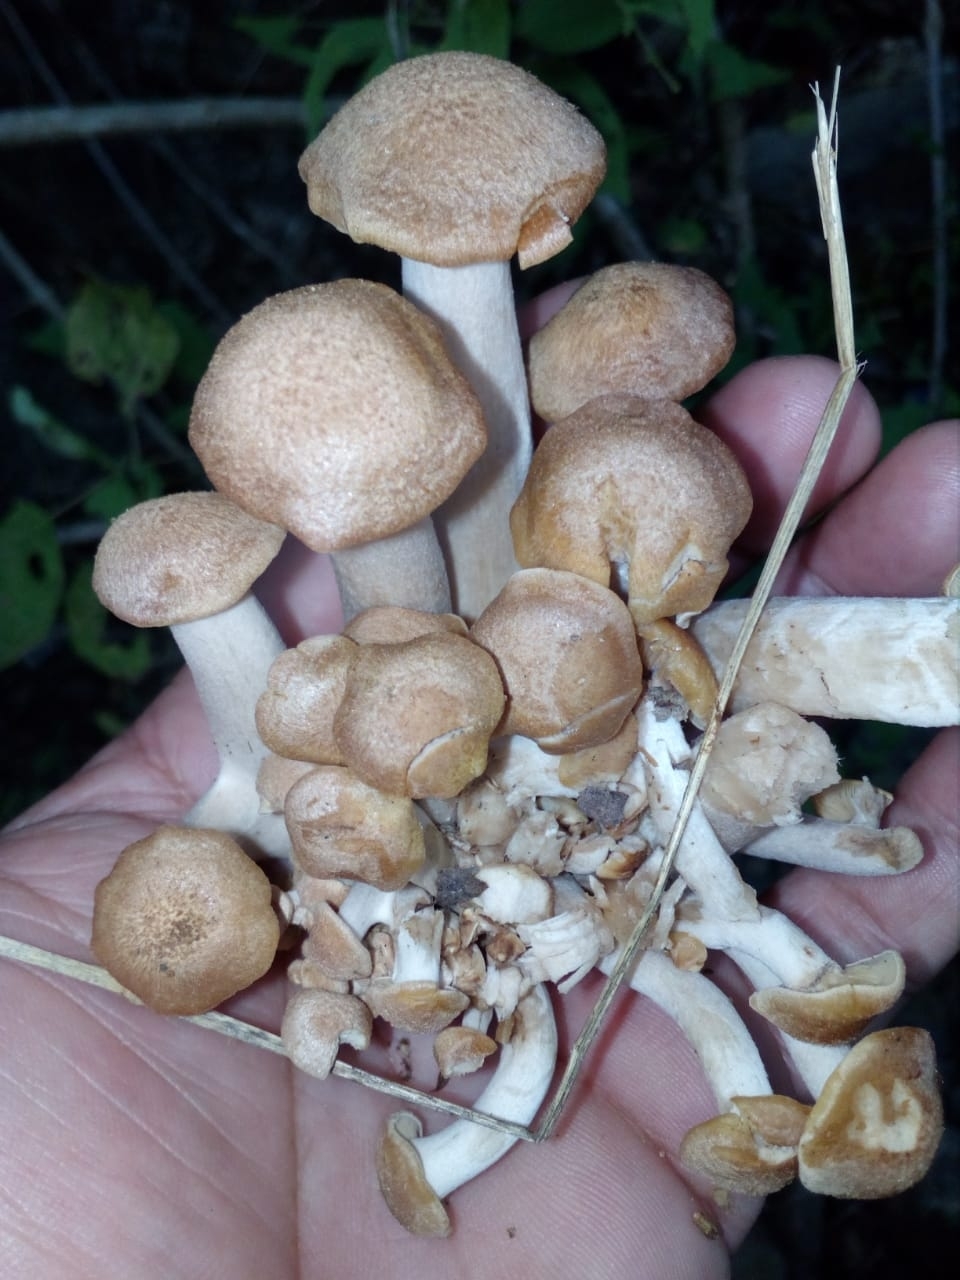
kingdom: Fungi
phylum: Basidiomycota
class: Agaricomycetes
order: Agaricales
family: Physalacriaceae
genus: Desarmillaria
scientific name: Desarmillaria caespitosa
